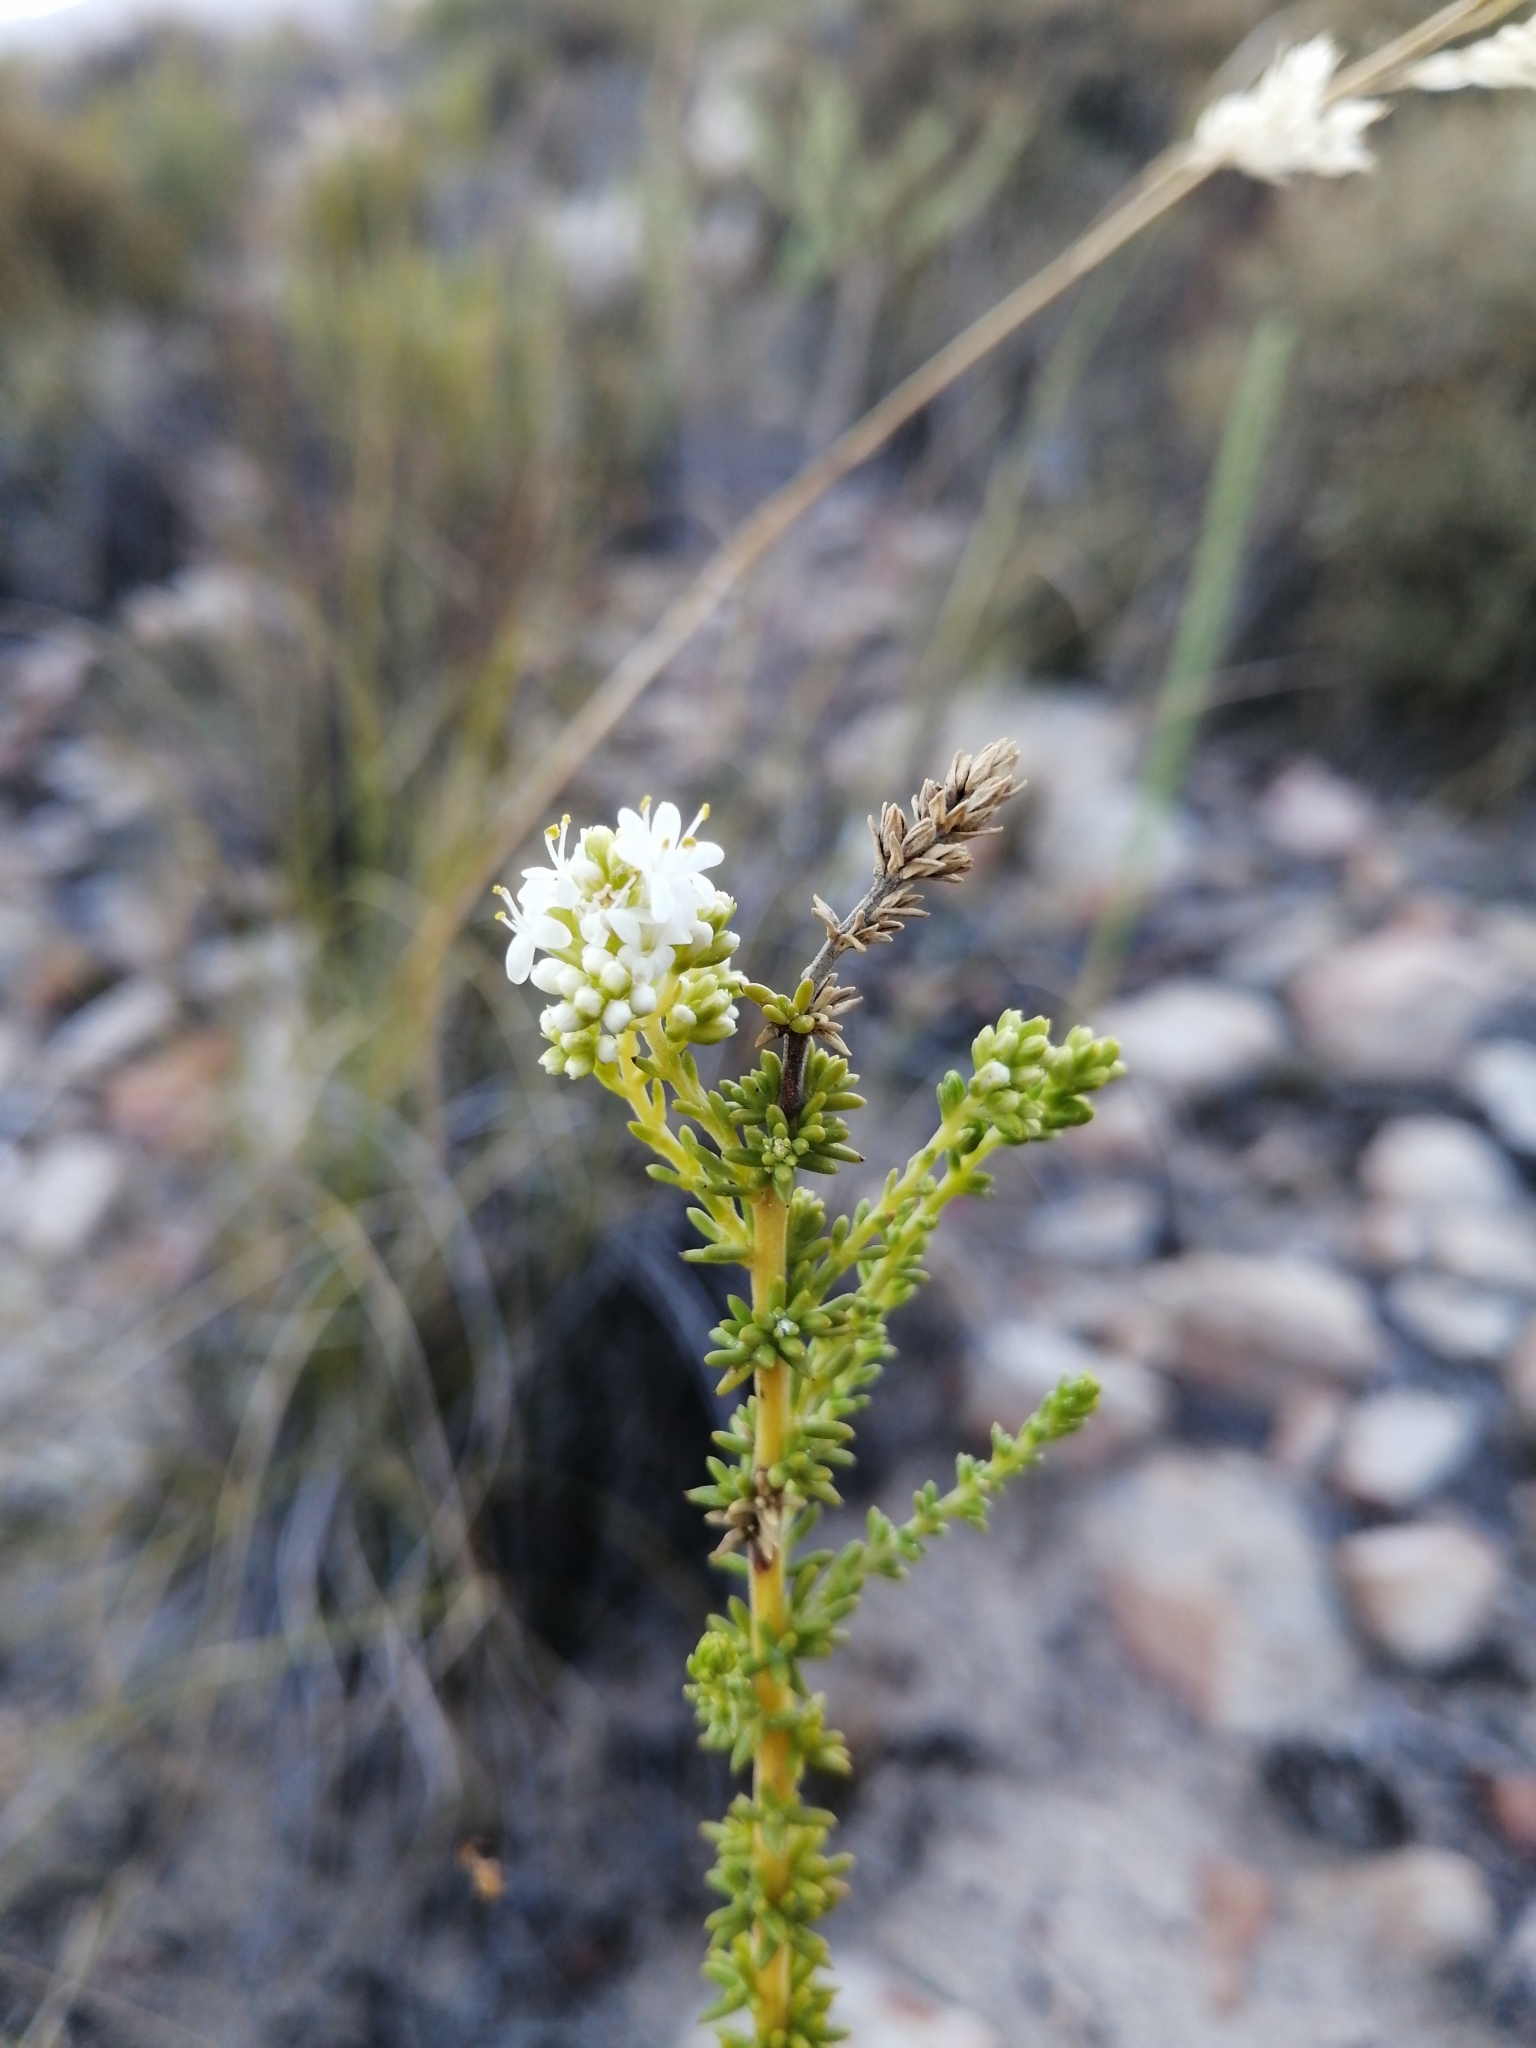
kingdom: Plantae
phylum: Tracheophyta
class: Magnoliopsida
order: Lamiales
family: Scrophulariaceae
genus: Selago
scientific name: Selago singularis
